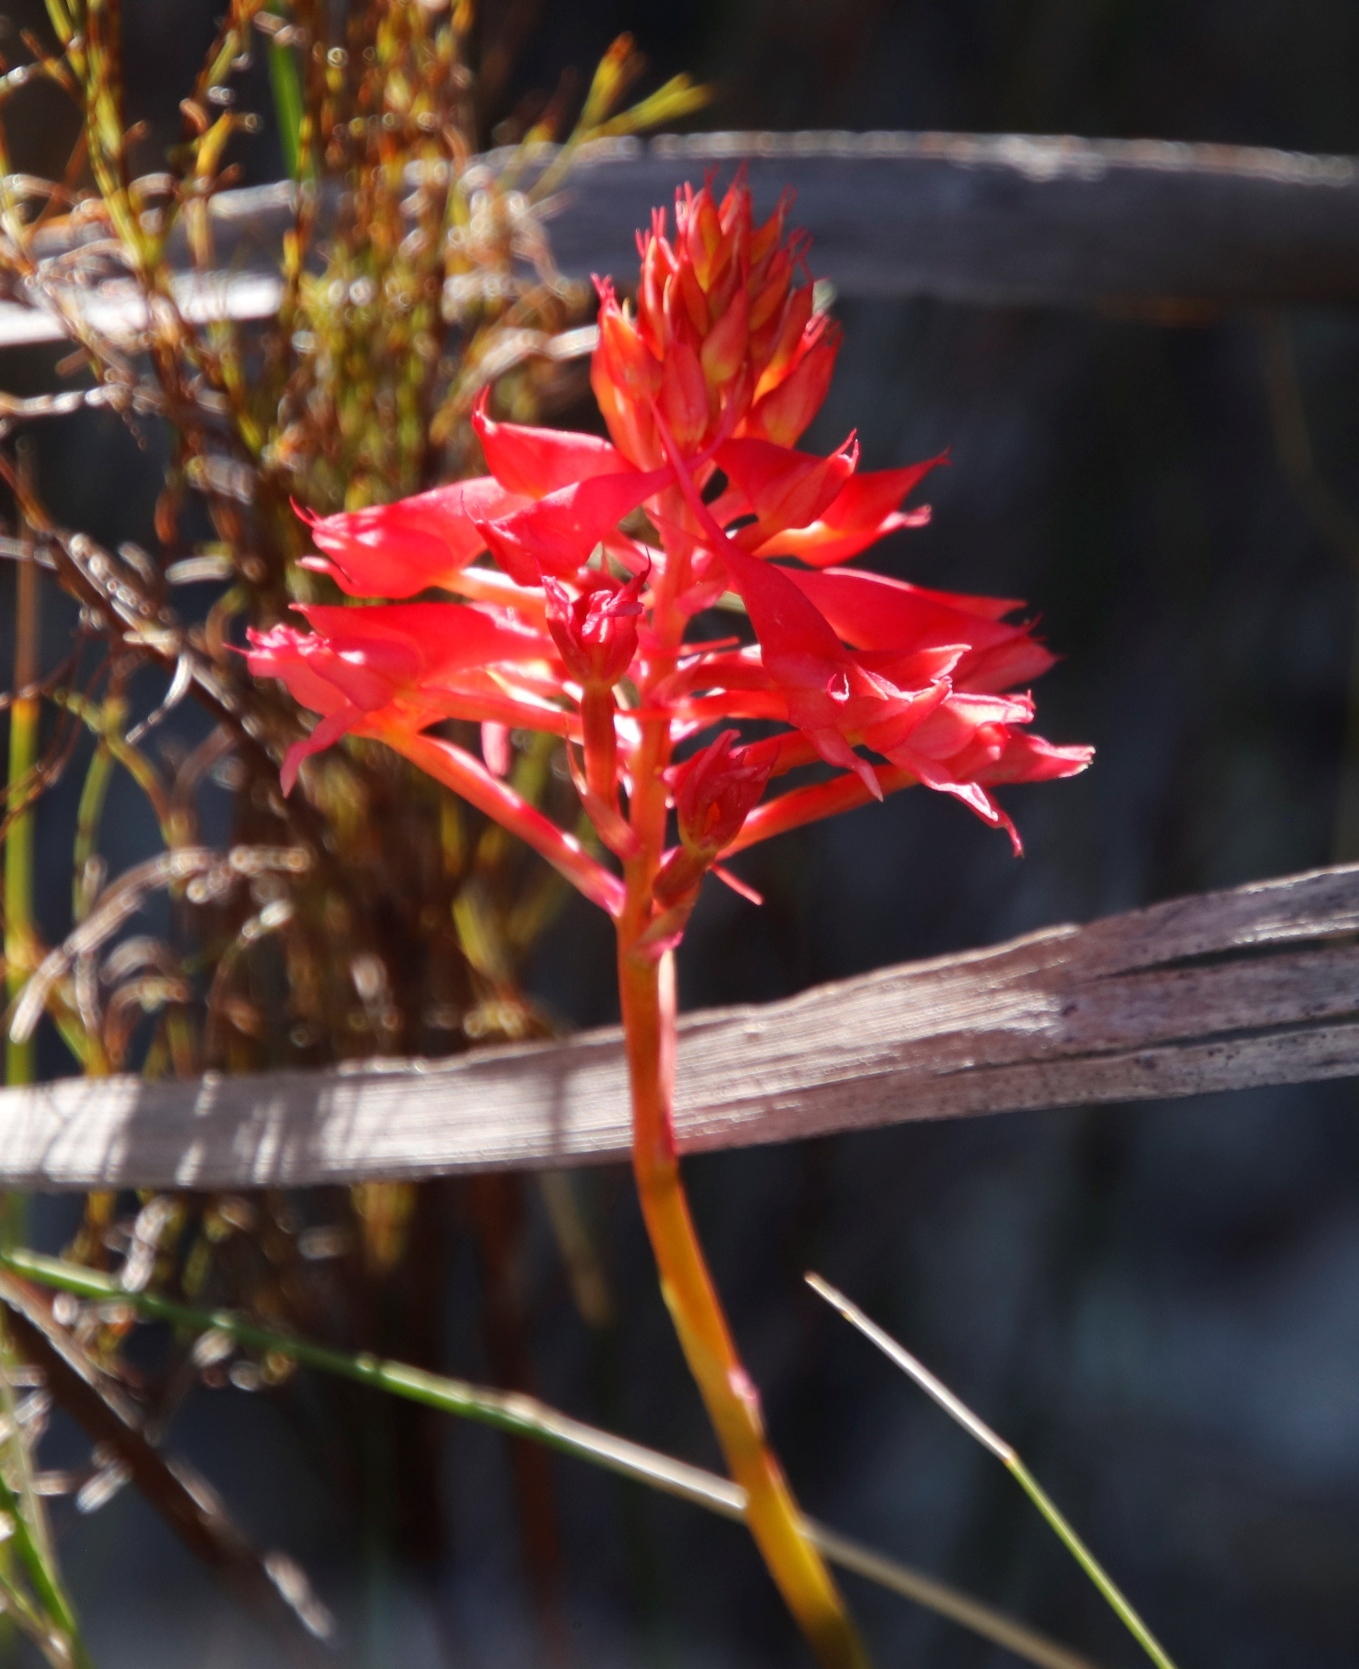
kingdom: Plantae
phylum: Tracheophyta
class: Liliopsida
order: Asparagales
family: Orchidaceae
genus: Disa
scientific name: Disa ferruginea
